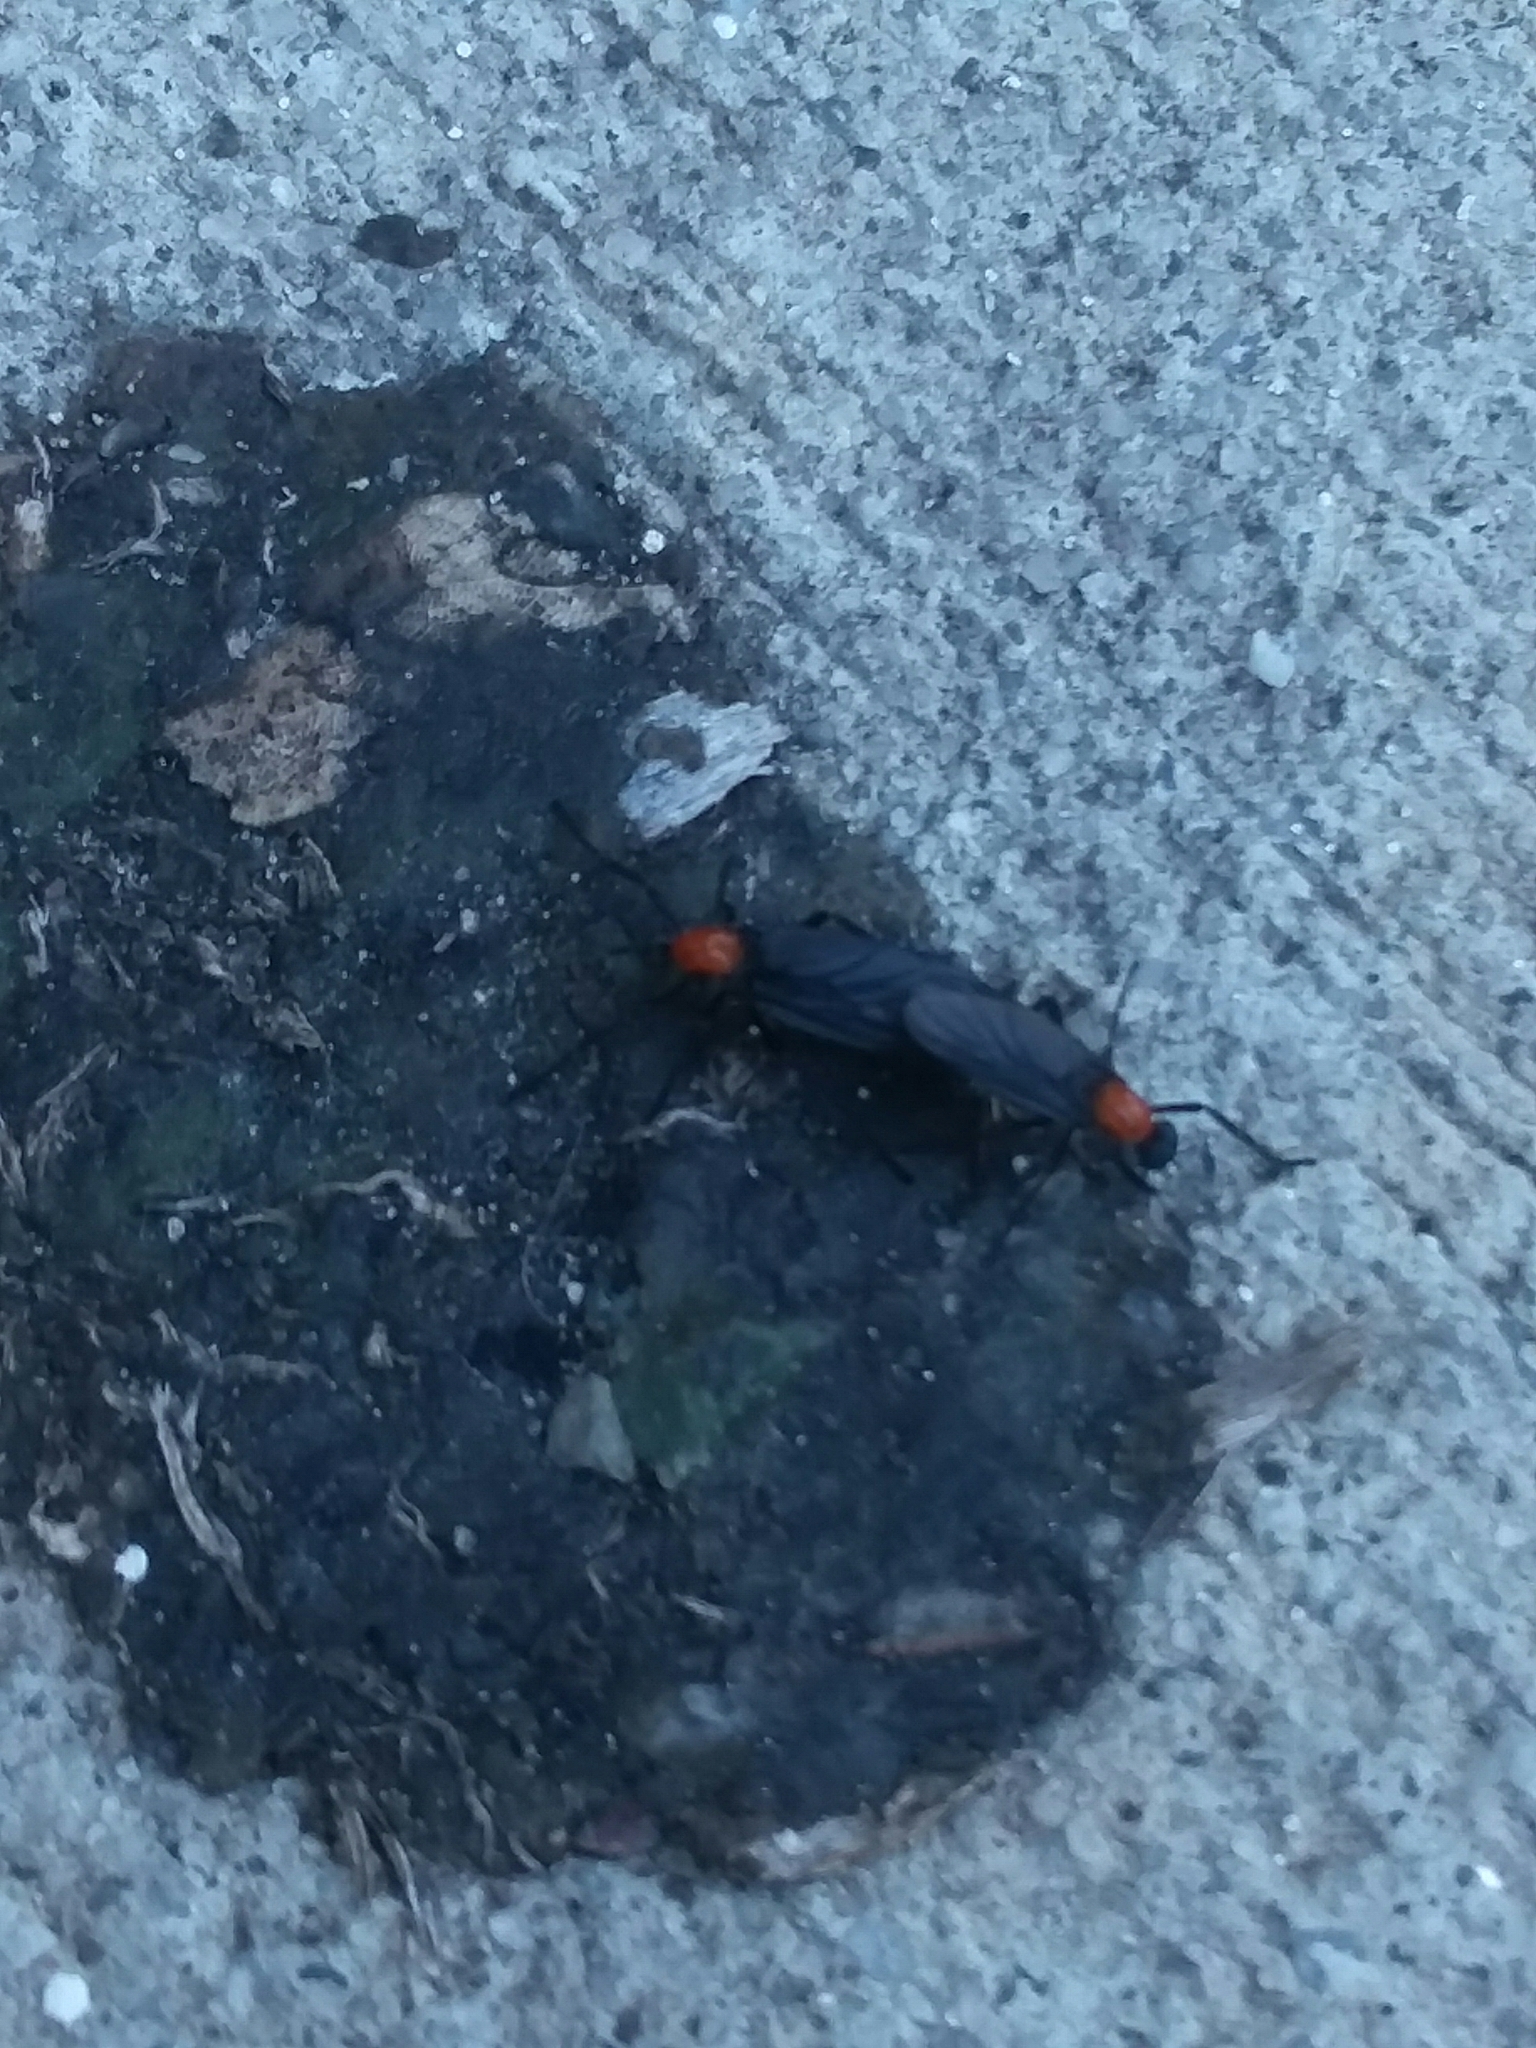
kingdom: Animalia
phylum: Arthropoda
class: Insecta
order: Diptera
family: Bibionidae
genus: Plecia
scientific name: Plecia nearctica
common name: March fly
